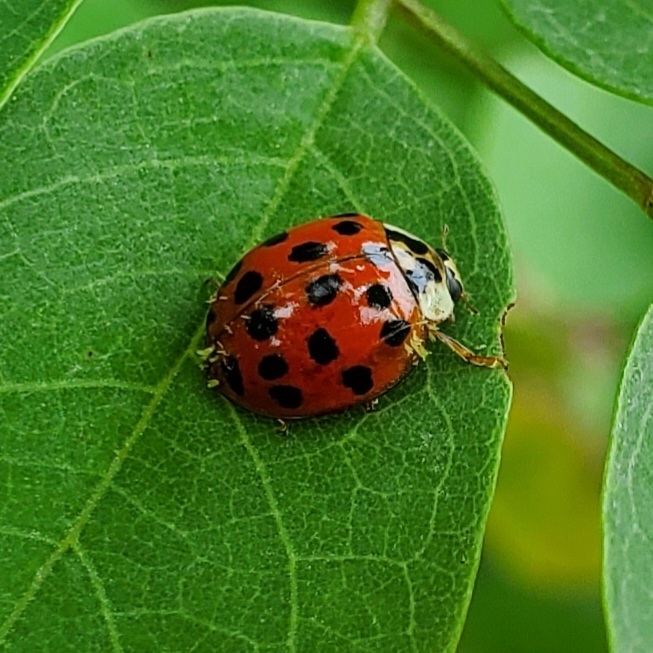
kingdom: Animalia
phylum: Arthropoda
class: Insecta
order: Coleoptera
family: Coccinellidae
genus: Harmonia
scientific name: Harmonia axyridis
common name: Harlequin ladybird
